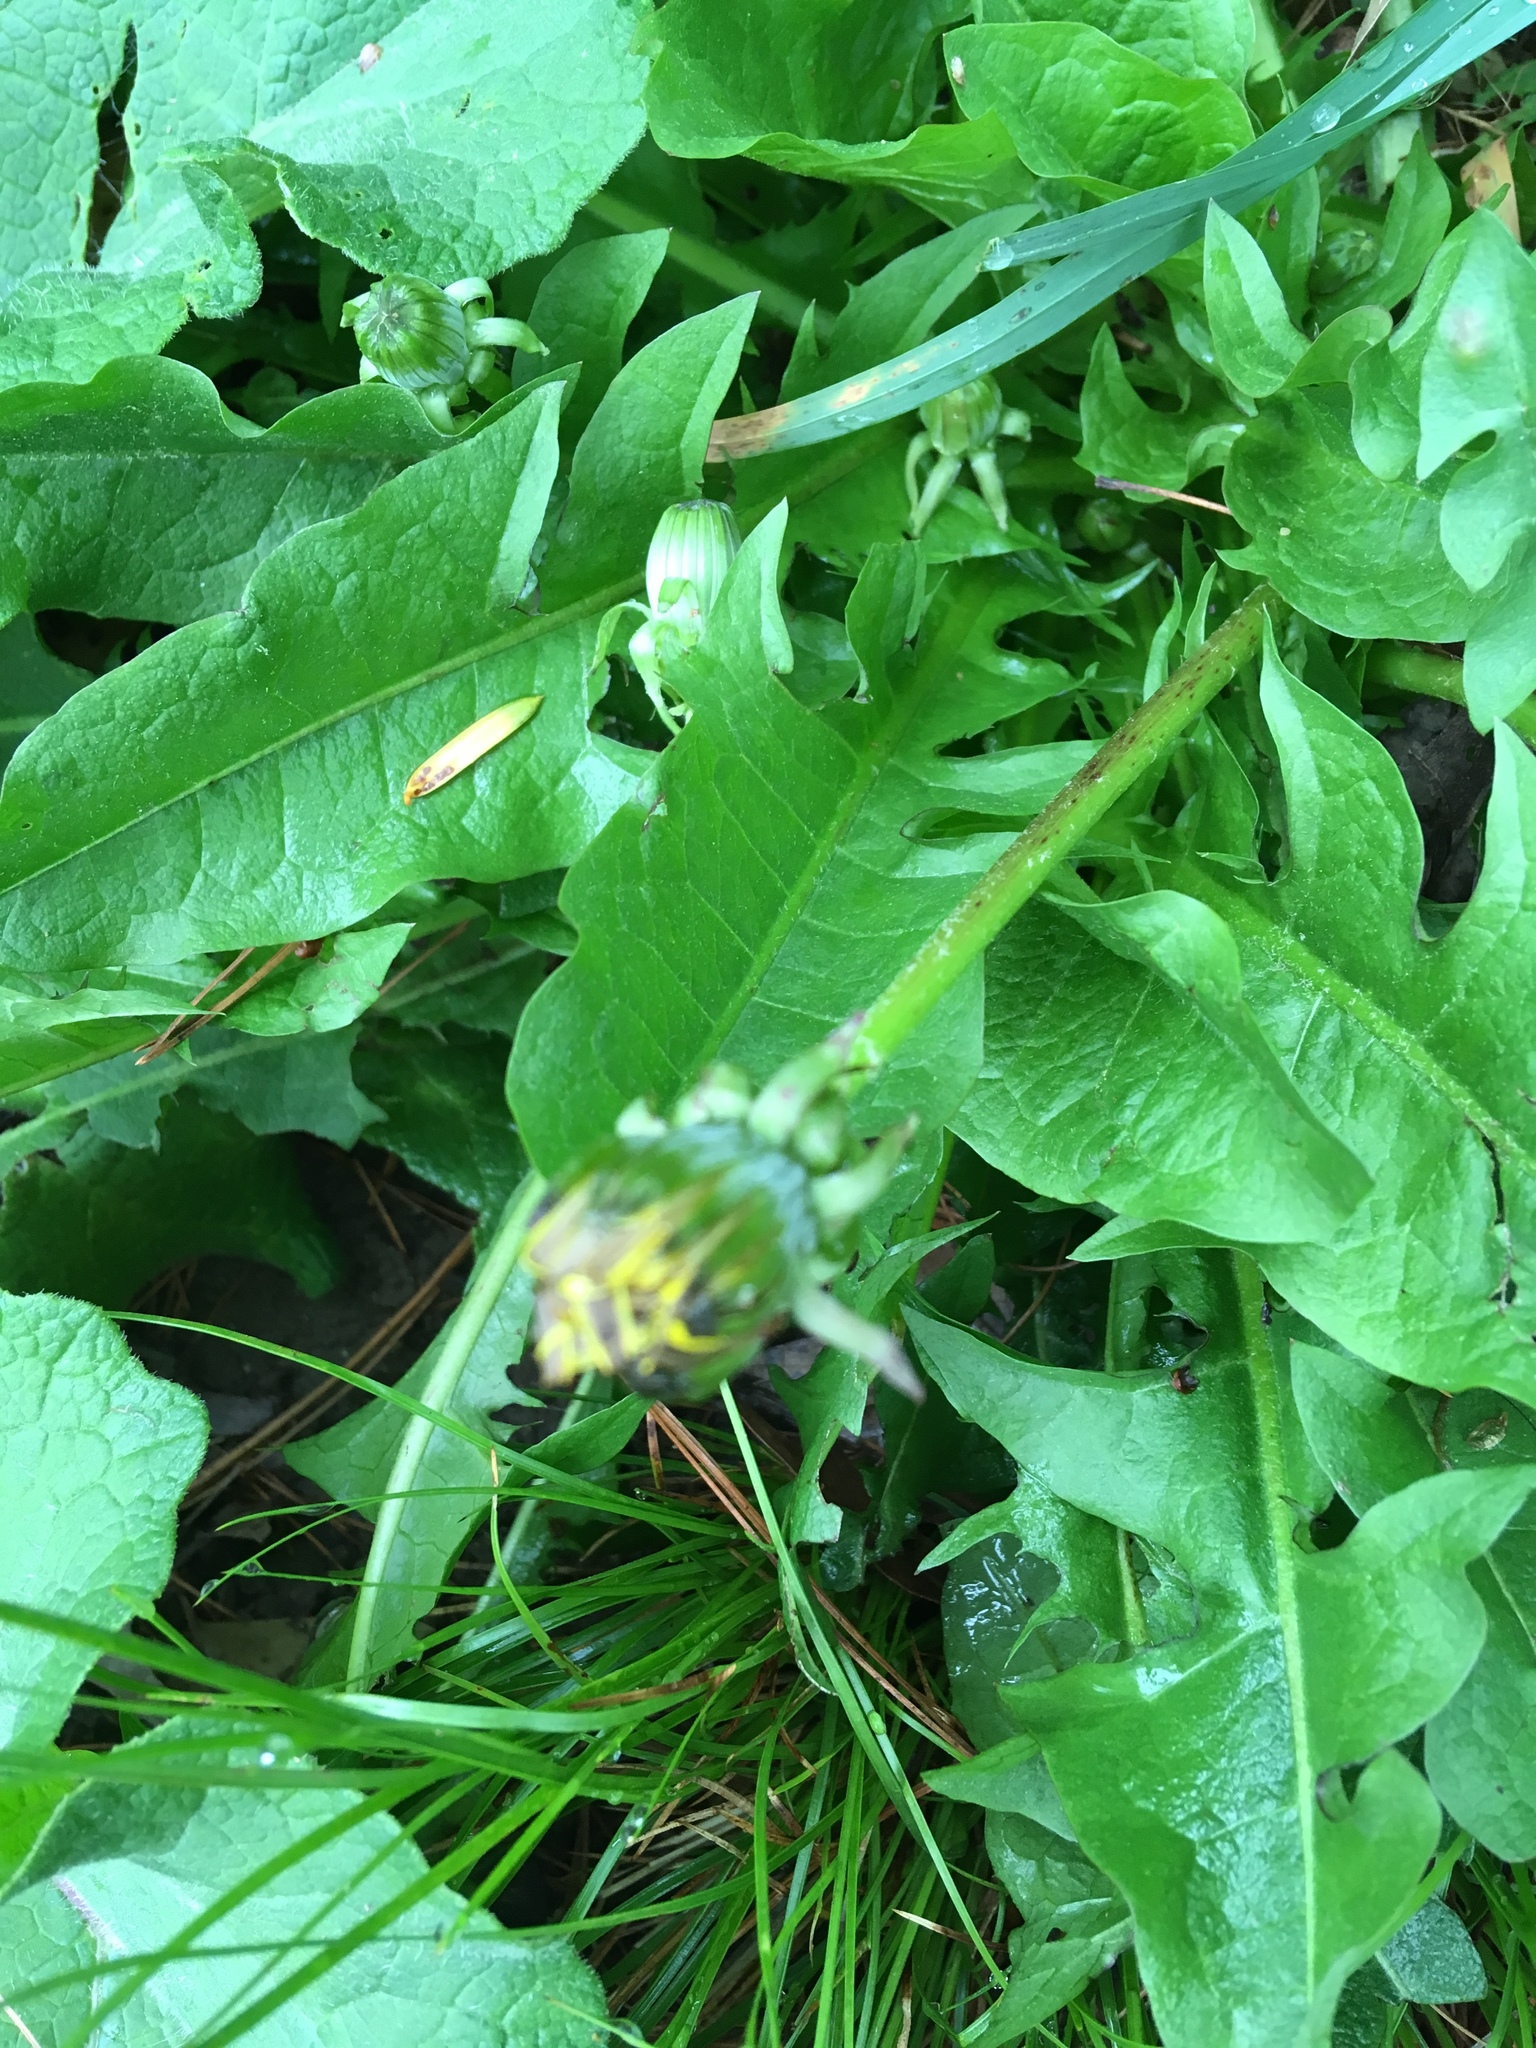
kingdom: Plantae
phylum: Tracheophyta
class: Magnoliopsida
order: Asterales
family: Asteraceae
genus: Taraxacum
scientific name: Taraxacum officinale
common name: Common dandelion
